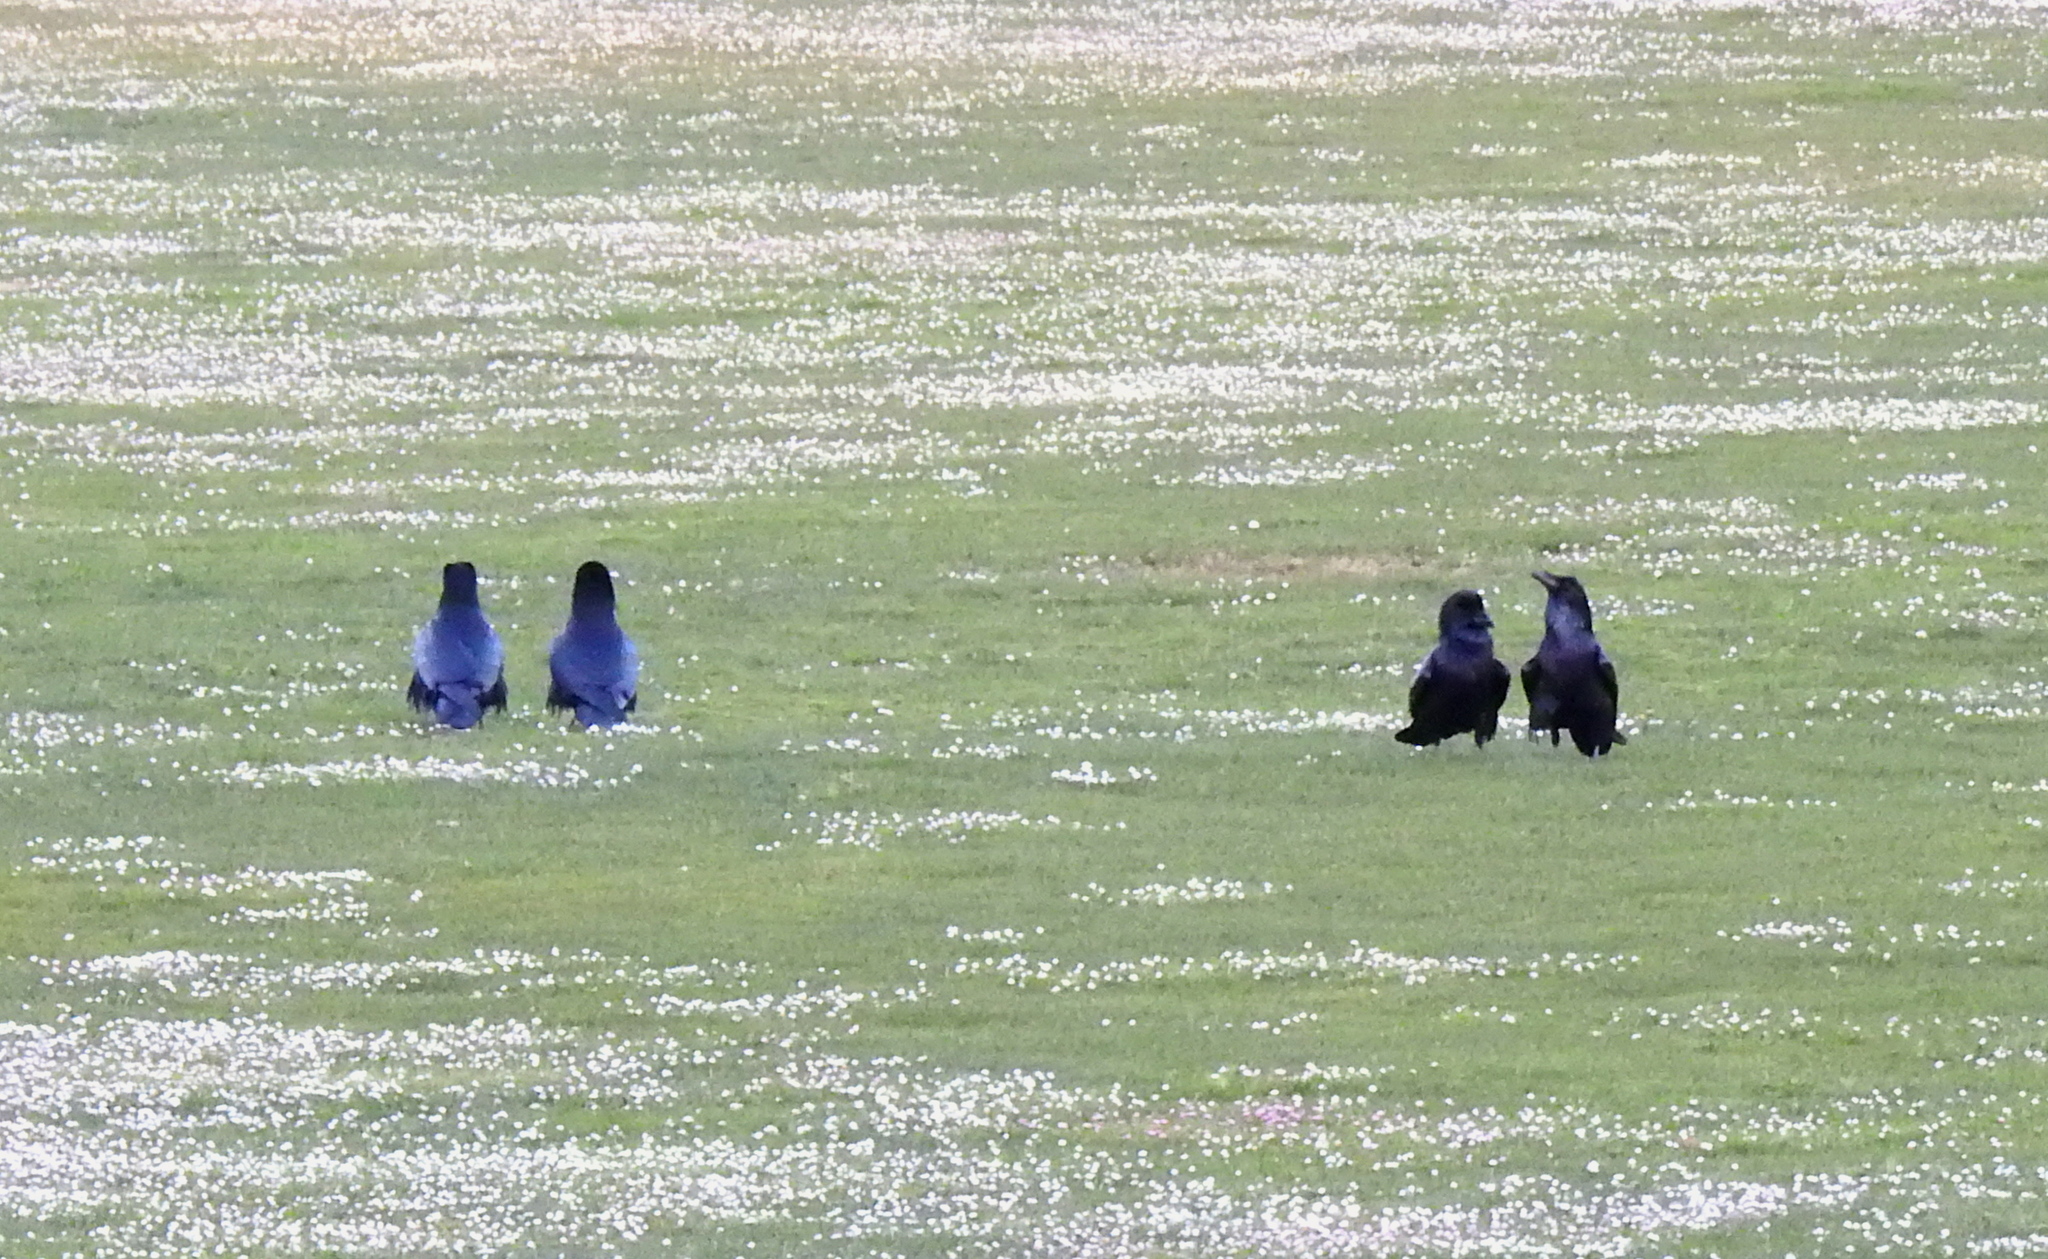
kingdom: Animalia
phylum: Chordata
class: Aves
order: Passeriformes
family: Corvidae
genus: Corvus
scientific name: Corvus corax
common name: Common raven
